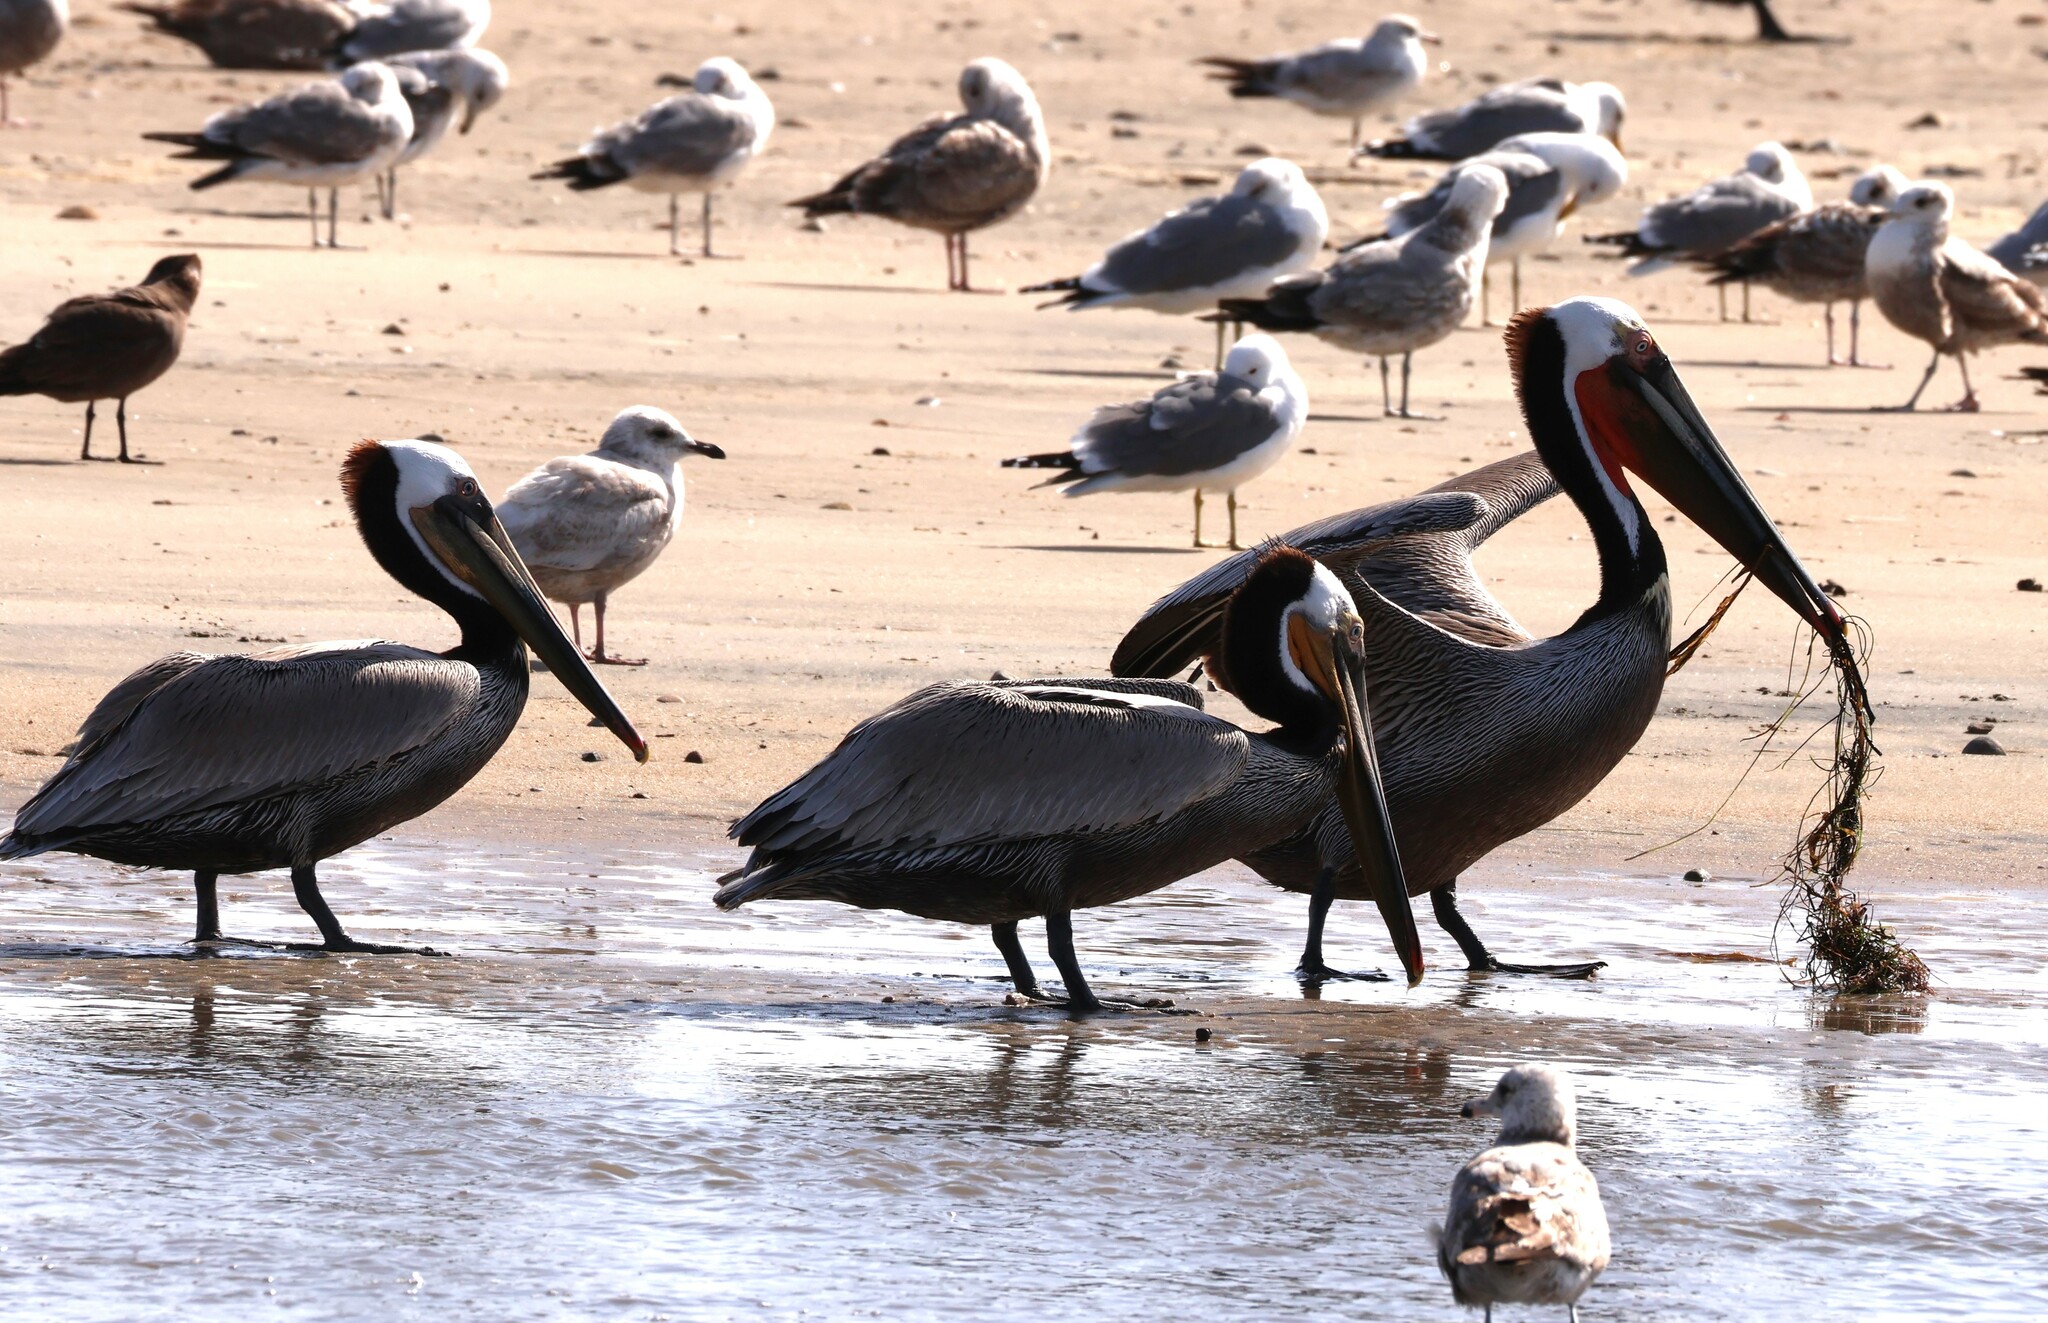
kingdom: Animalia
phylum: Chordata
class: Aves
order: Pelecaniformes
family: Pelecanidae
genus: Pelecanus
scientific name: Pelecanus occidentalis
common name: Brown pelican
